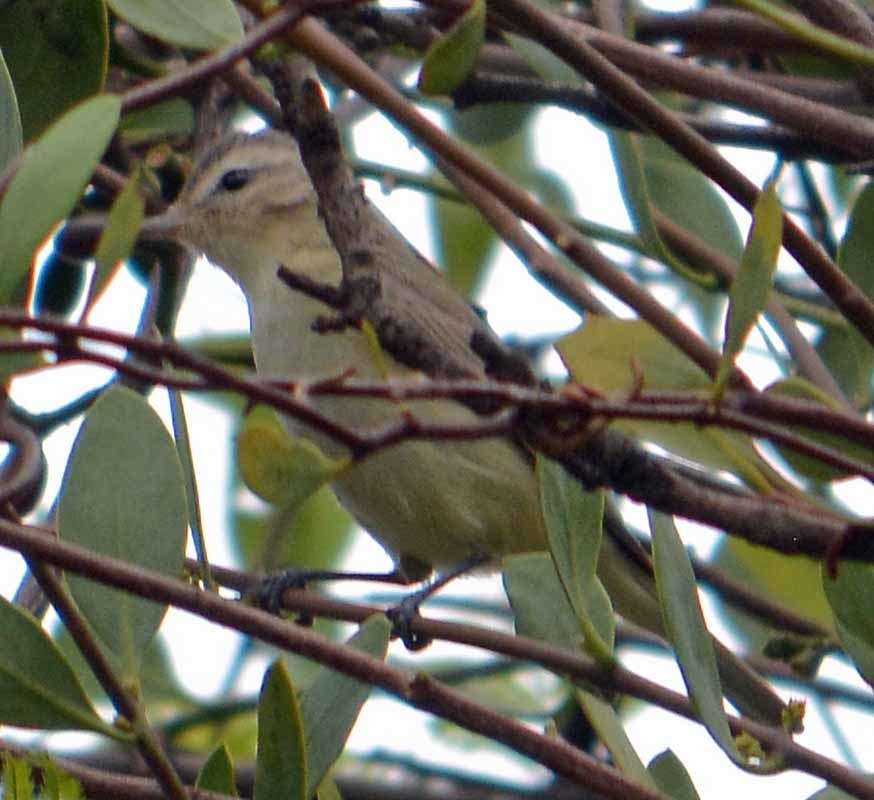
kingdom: Animalia
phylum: Chordata
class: Aves
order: Passeriformes
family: Vireonidae
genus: Vireo
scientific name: Vireo gilvus
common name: Warbling vireo
